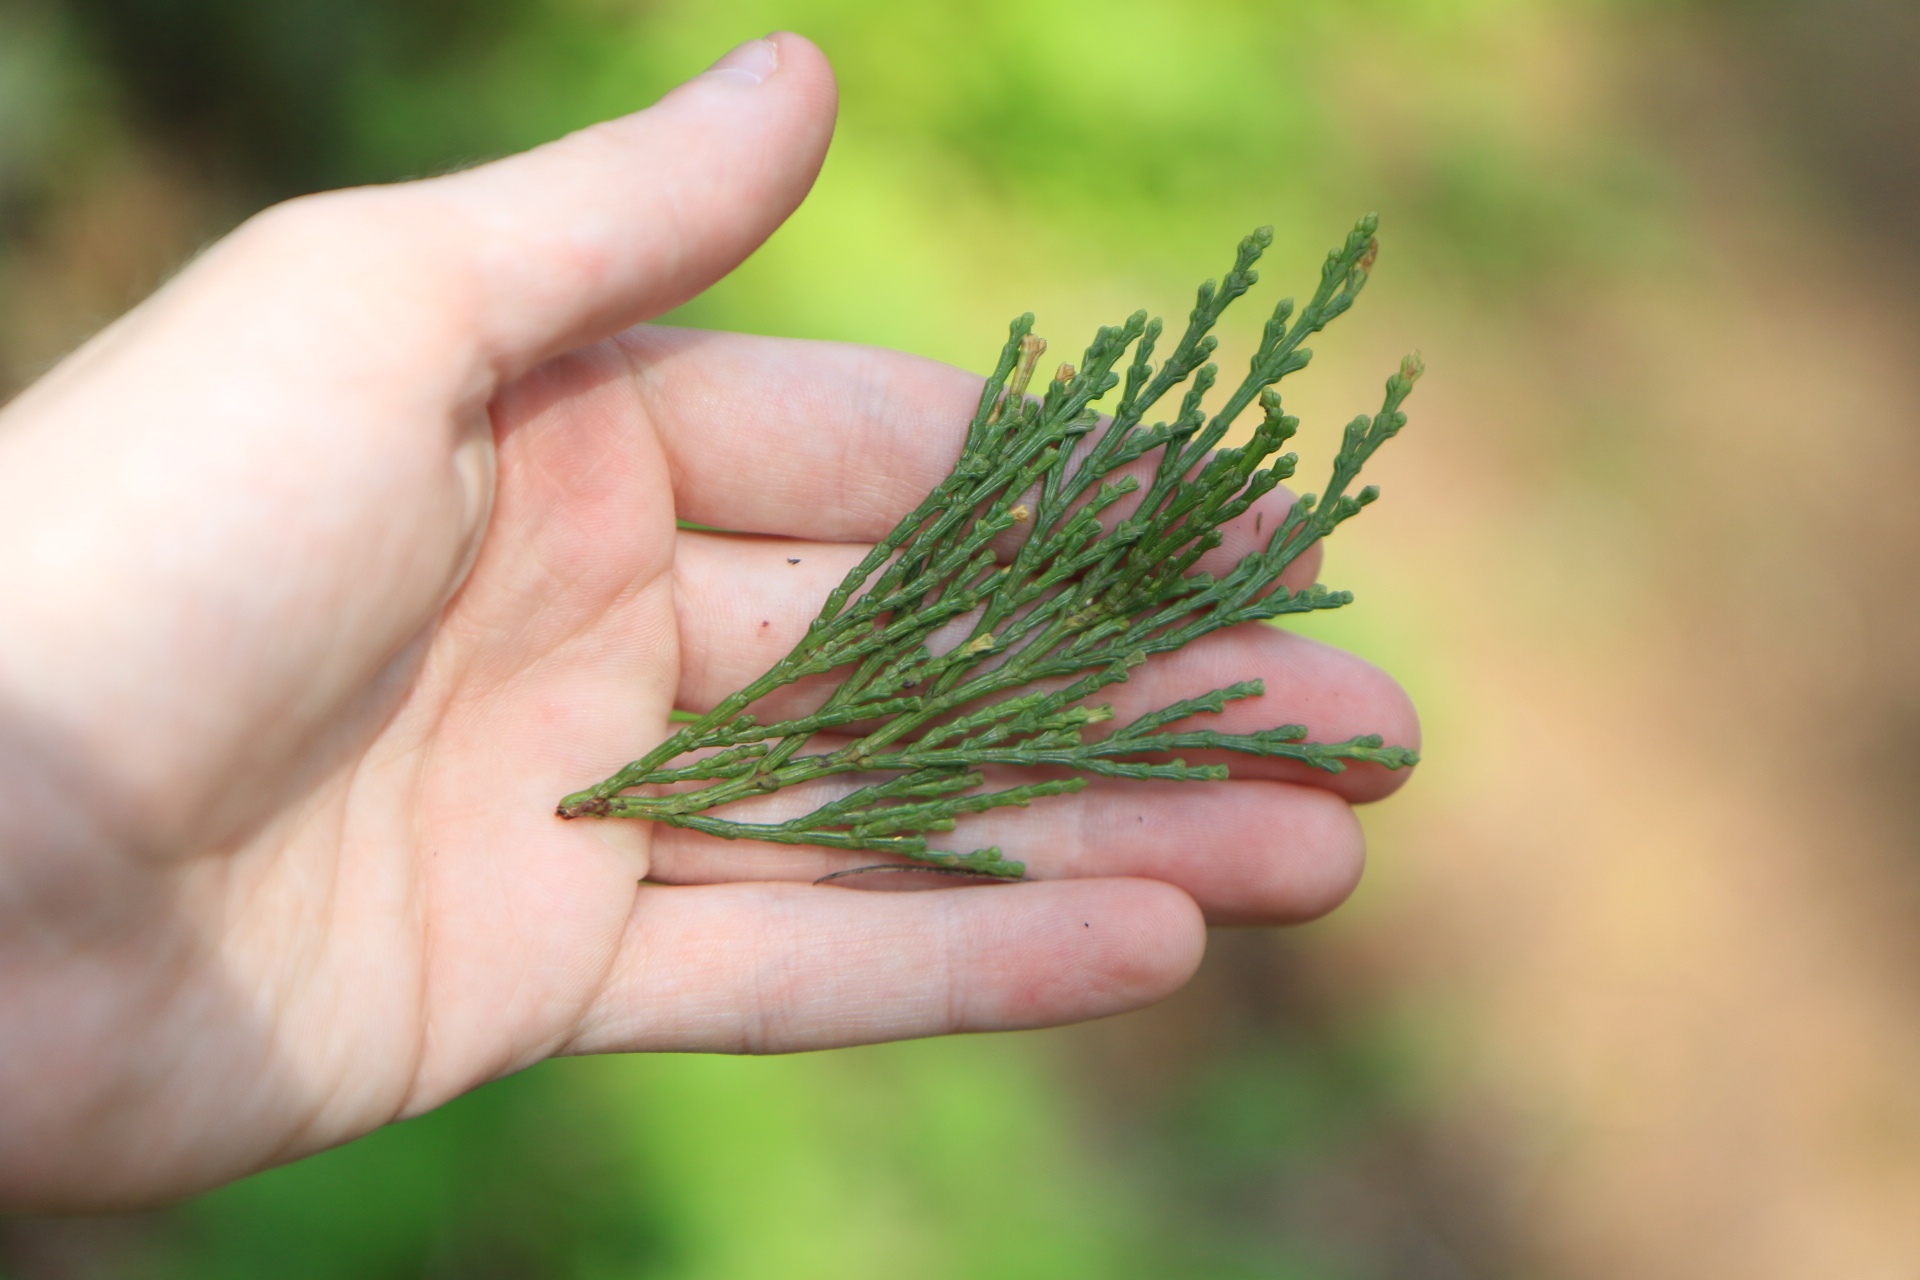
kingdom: Plantae
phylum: Tracheophyta
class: Pinopsida
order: Pinales
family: Cupressaceae
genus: Calocedrus
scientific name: Calocedrus decurrens
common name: Californian incense-cedar
